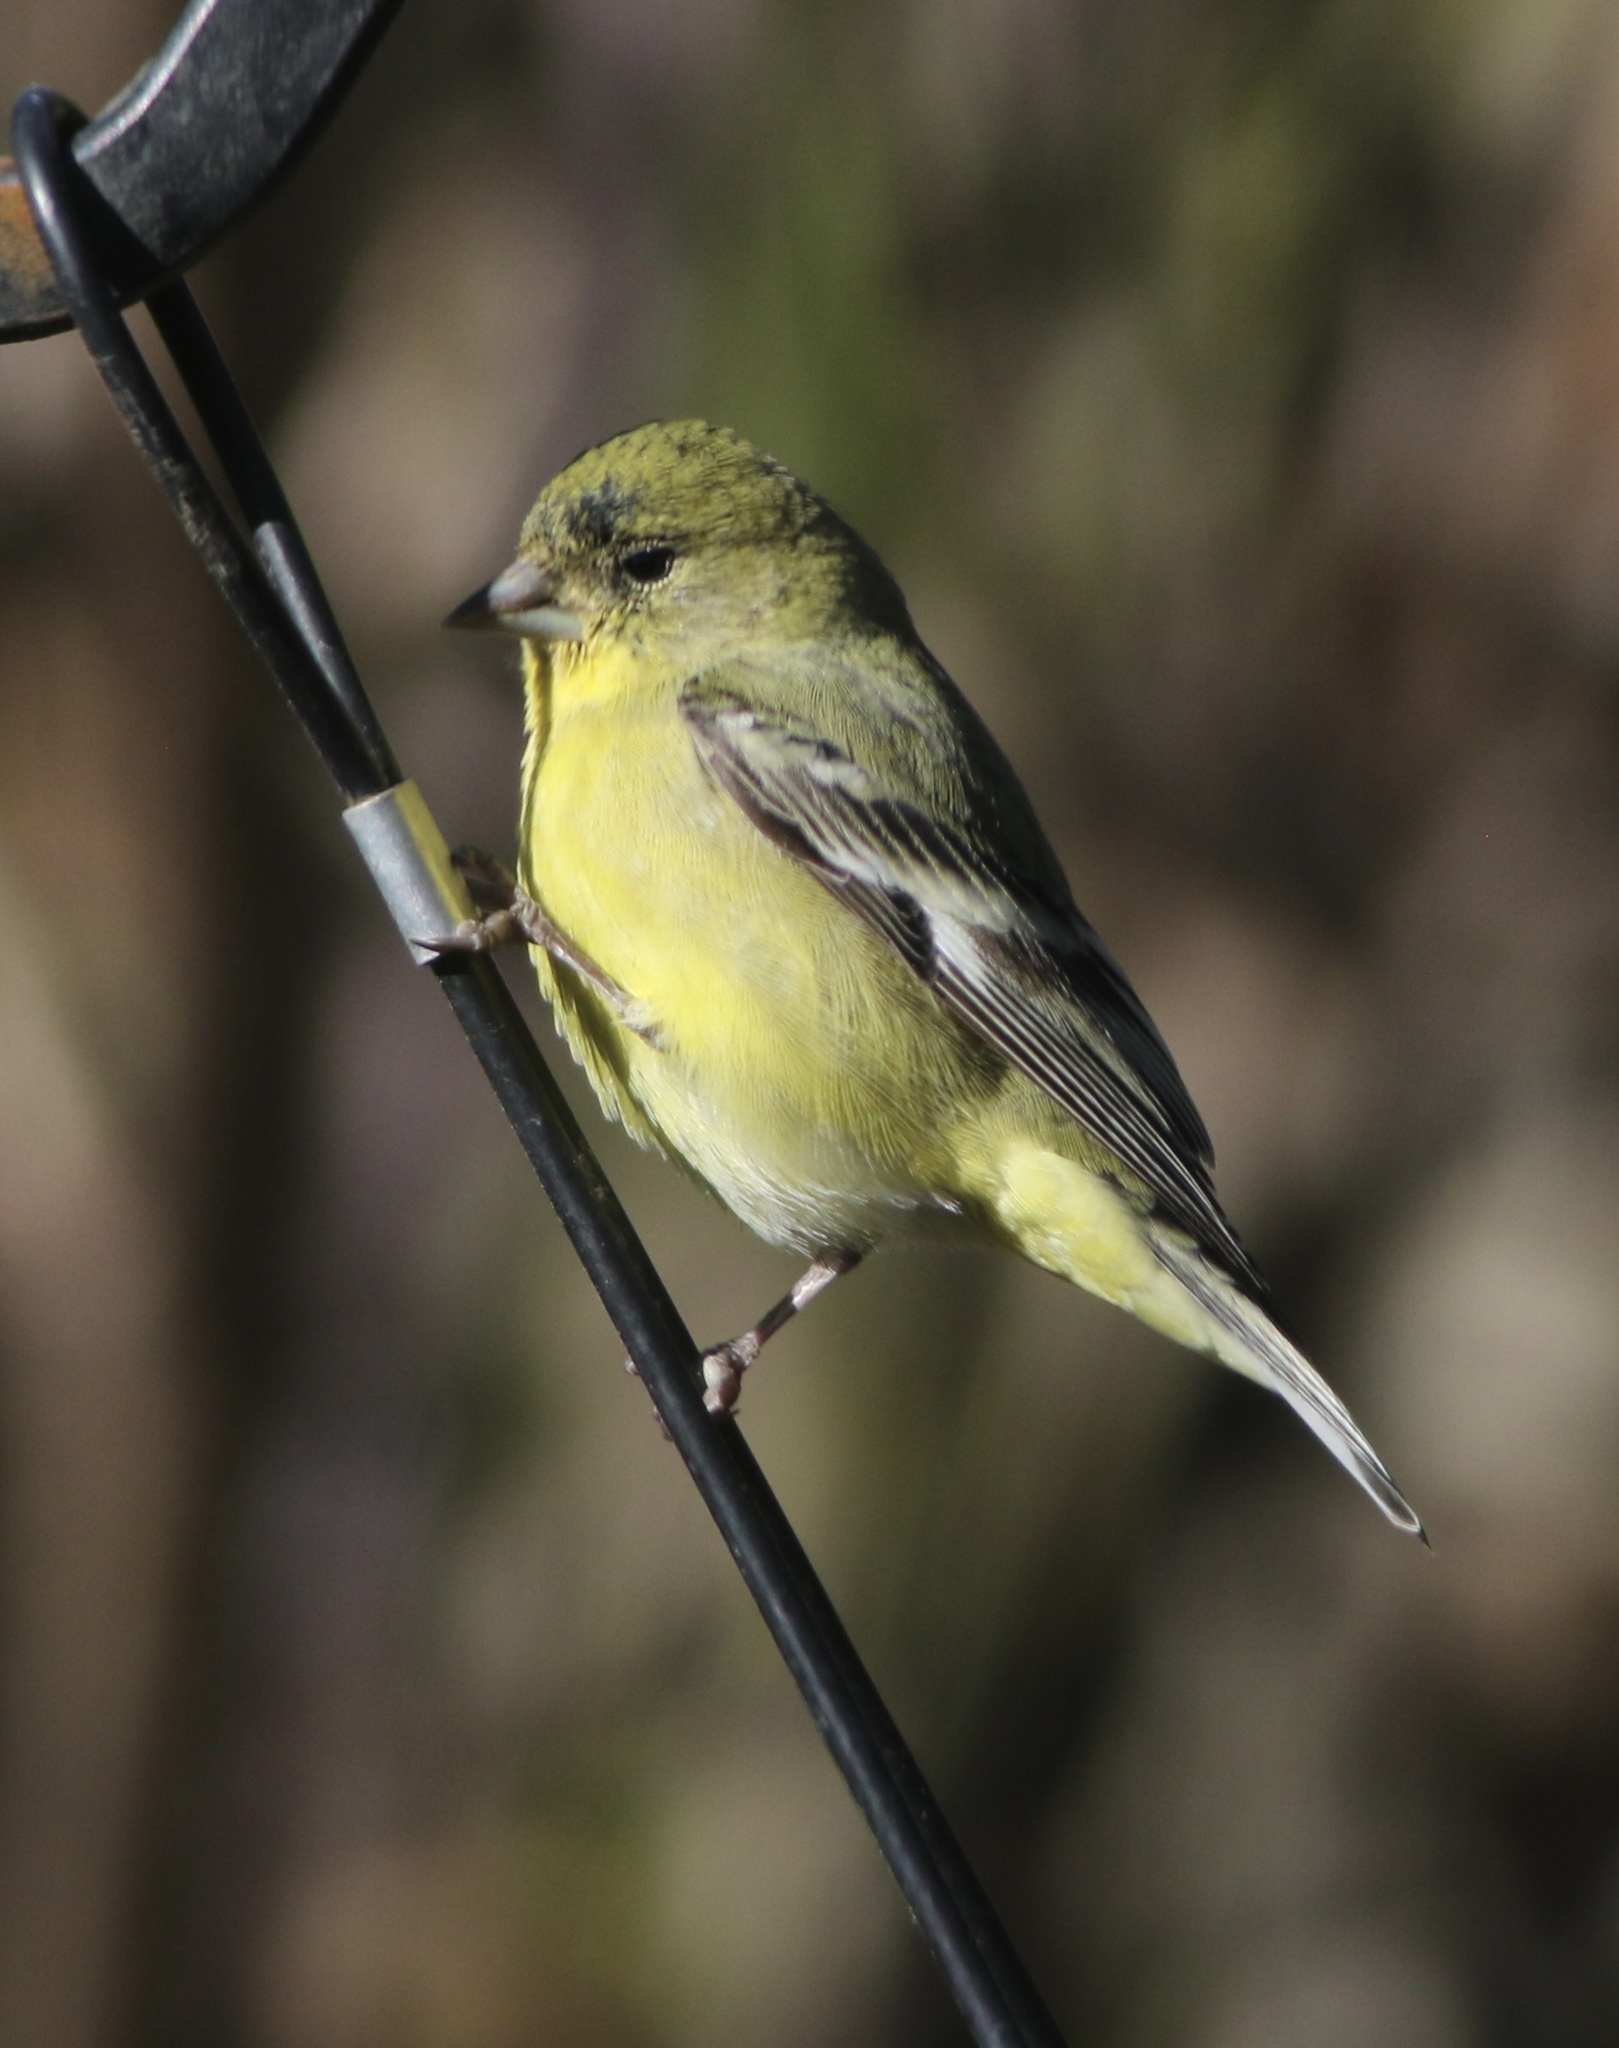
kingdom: Animalia
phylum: Chordata
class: Aves
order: Passeriformes
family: Fringillidae
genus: Spinus
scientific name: Spinus psaltria
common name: Lesser goldfinch
